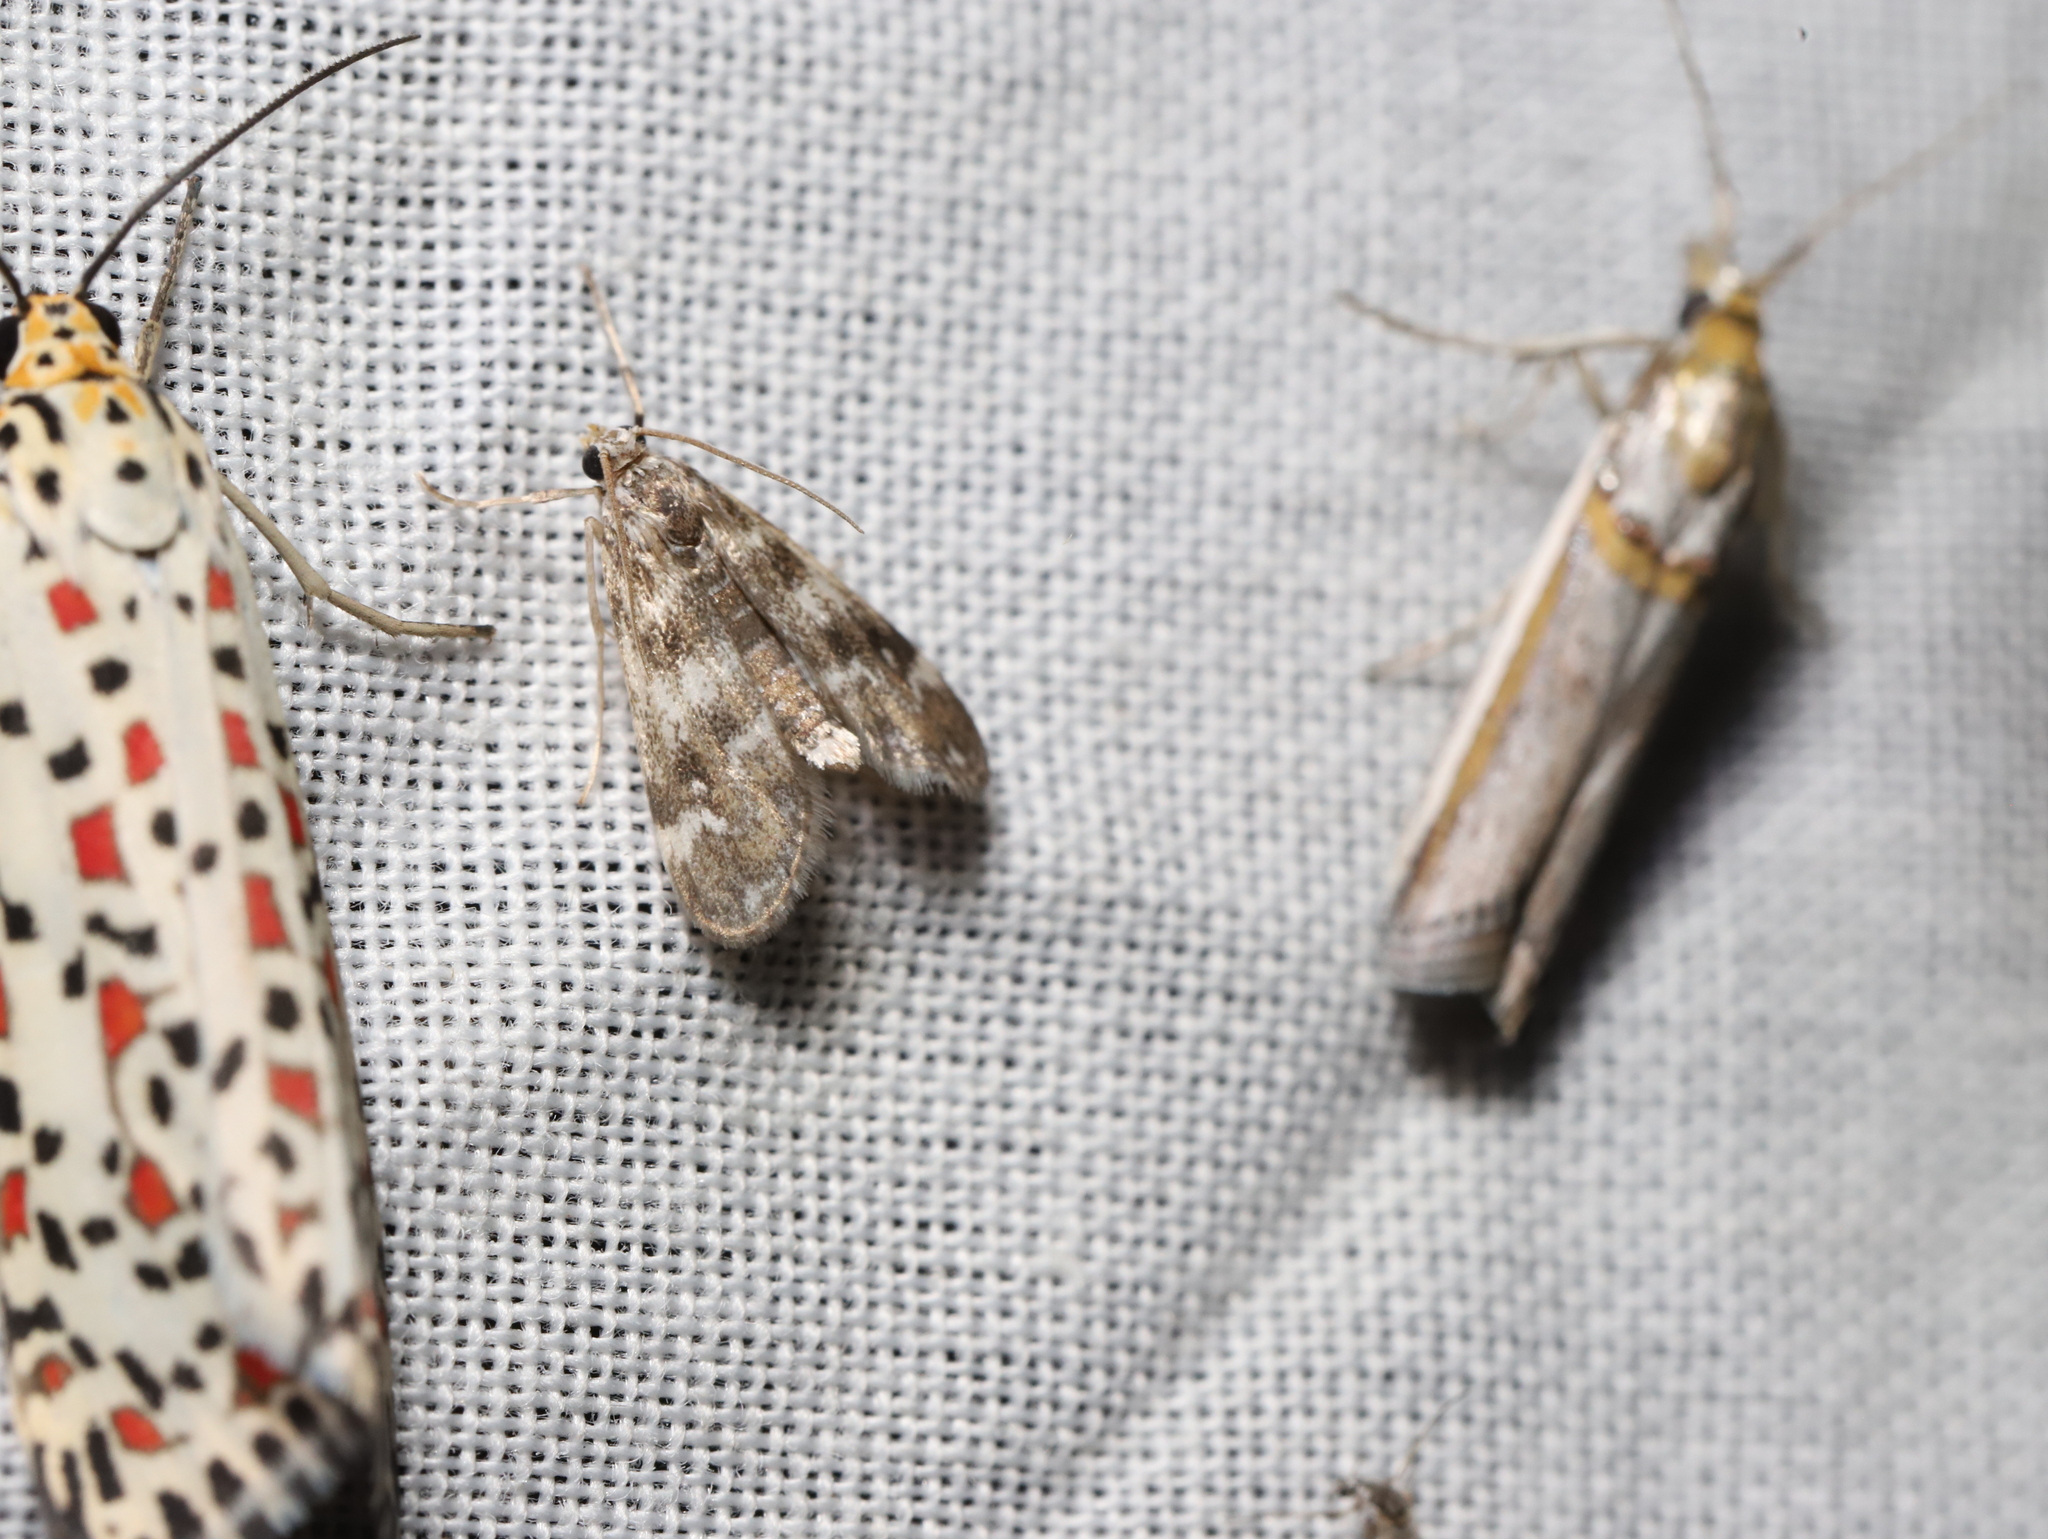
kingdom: Animalia
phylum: Arthropoda
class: Insecta
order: Lepidoptera
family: Crambidae
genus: Hygraula
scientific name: Hygraula nitens
